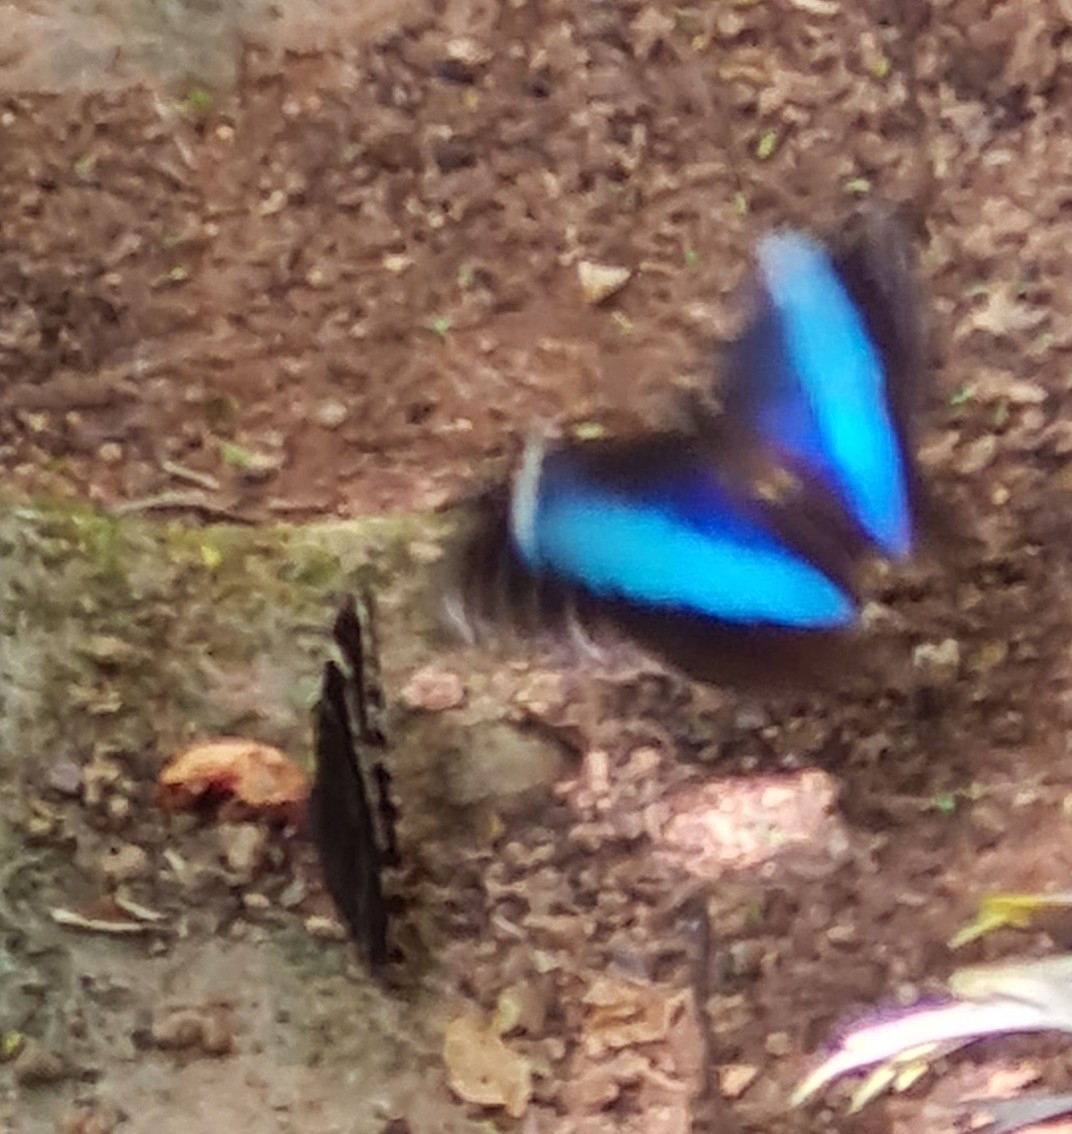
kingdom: Animalia
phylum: Arthropoda
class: Insecta
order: Lepidoptera
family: Nymphalidae
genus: Morpho
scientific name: Morpho helenor
